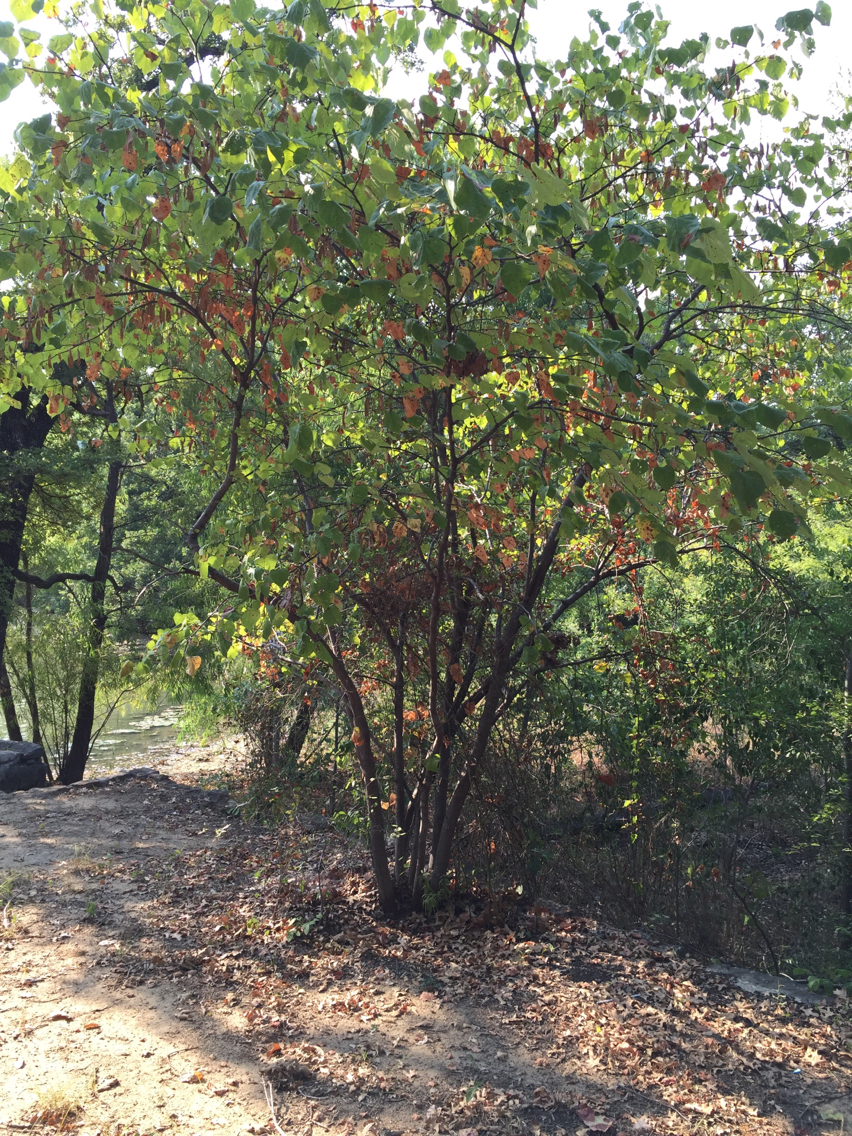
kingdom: Plantae
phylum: Tracheophyta
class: Magnoliopsida
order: Fabales
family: Fabaceae
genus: Cercis
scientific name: Cercis canadensis
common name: Eastern redbud
